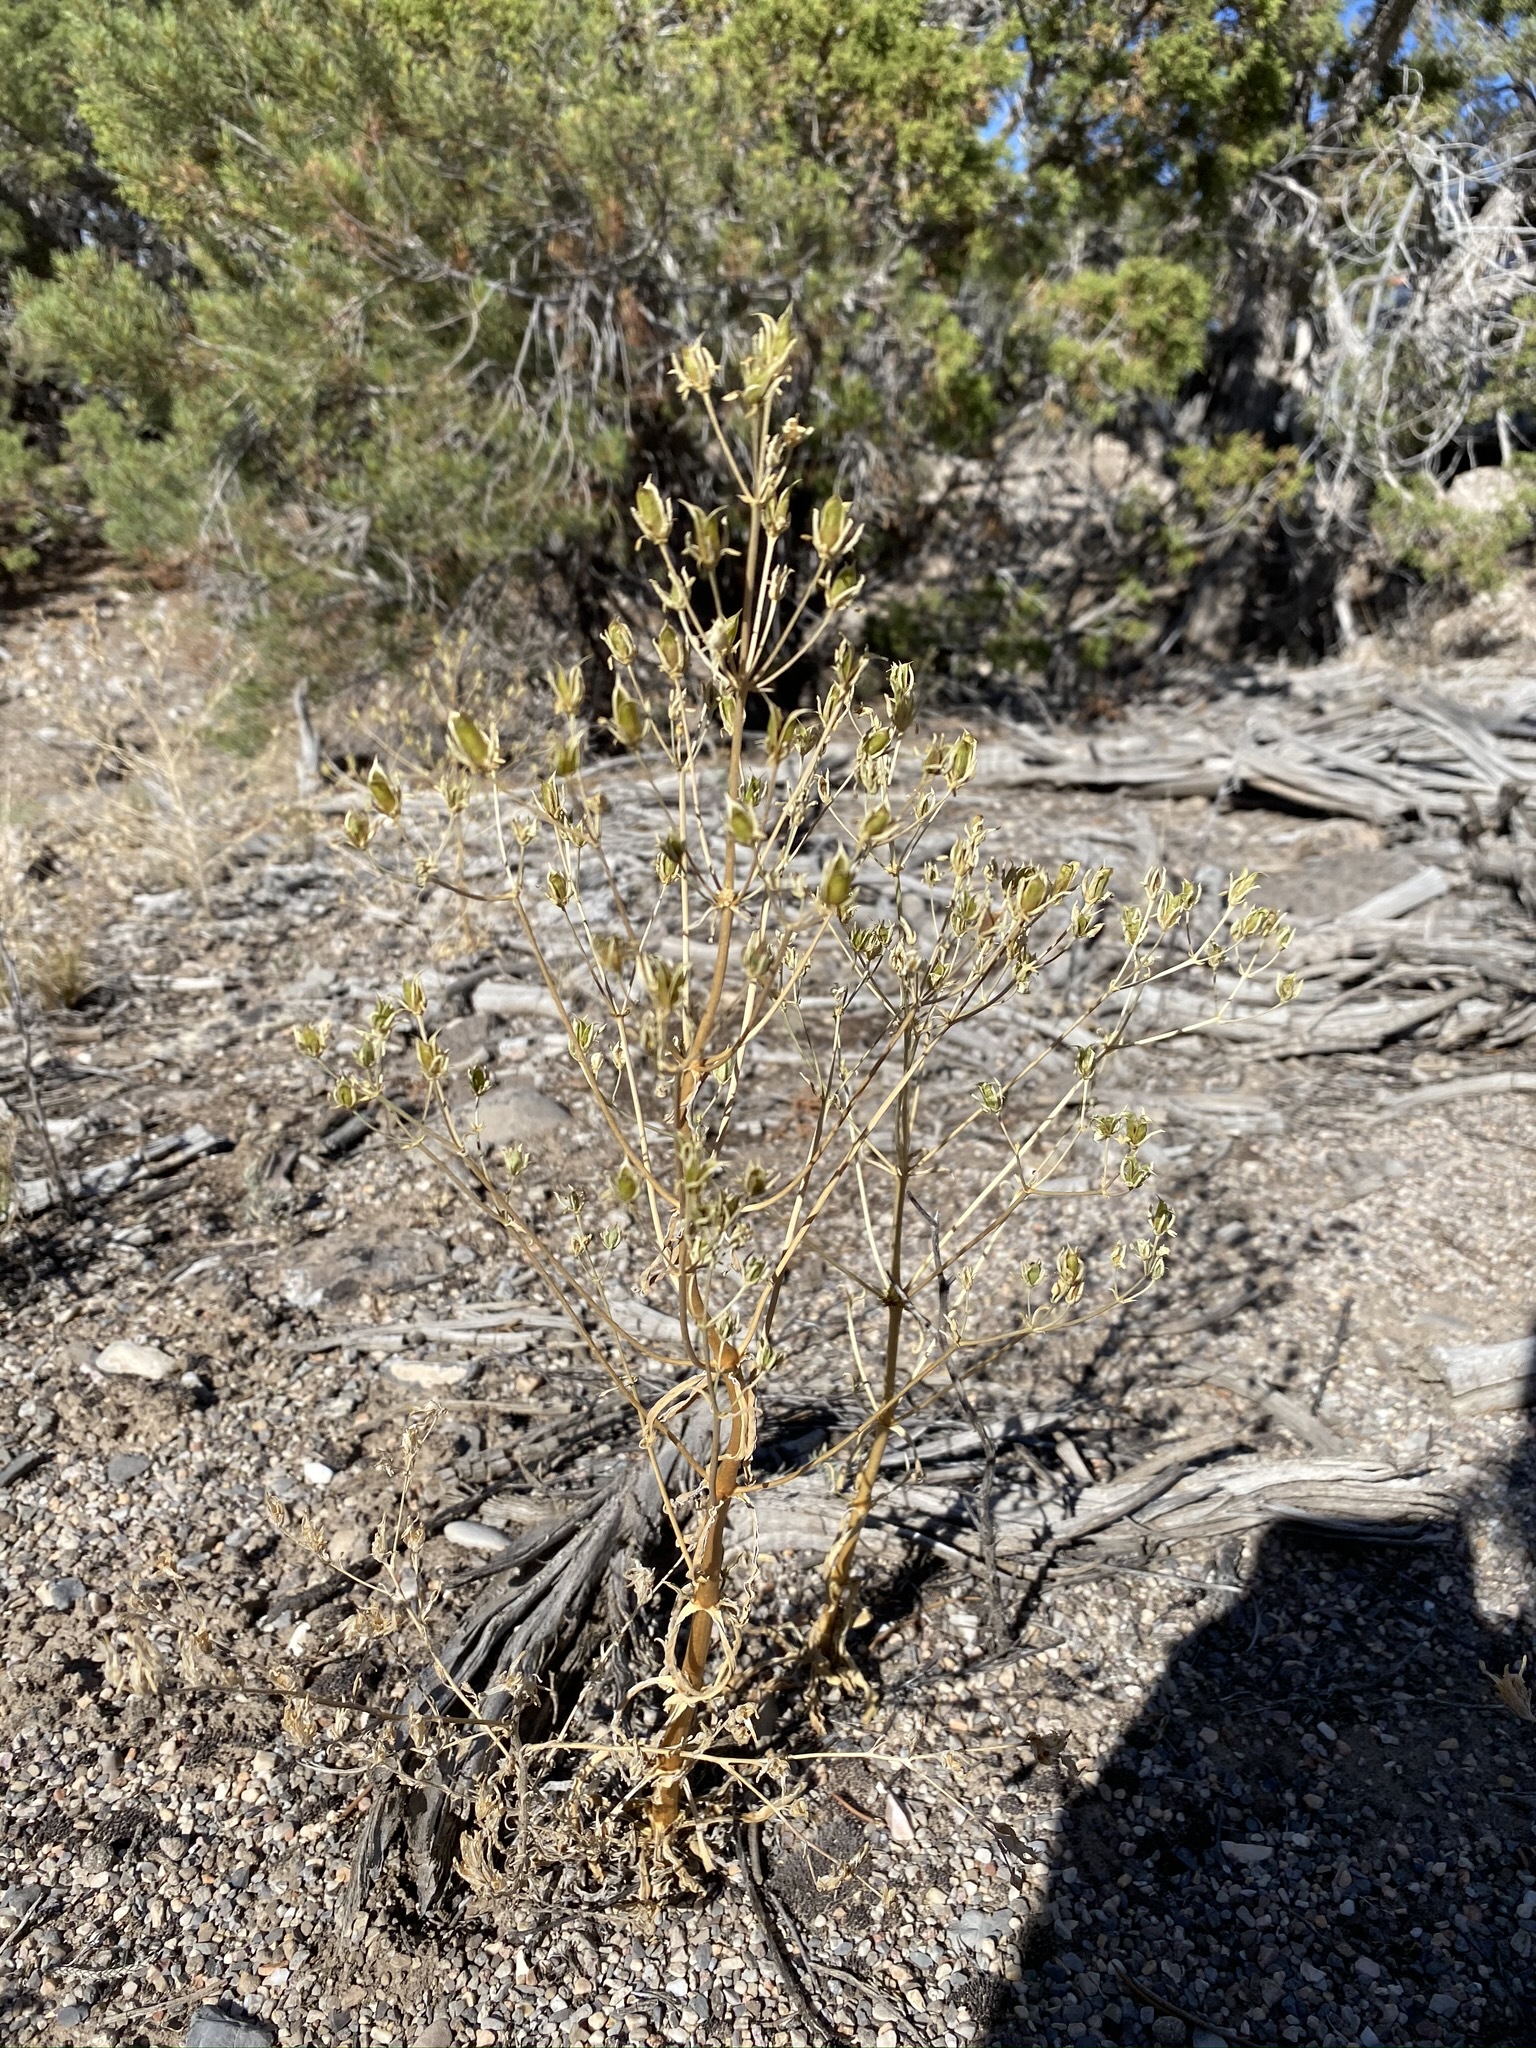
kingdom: Plantae
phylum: Tracheophyta
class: Magnoliopsida
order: Gentianales
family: Gentianaceae
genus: Frasera
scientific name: Frasera albomarginata
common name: Desert frasera
